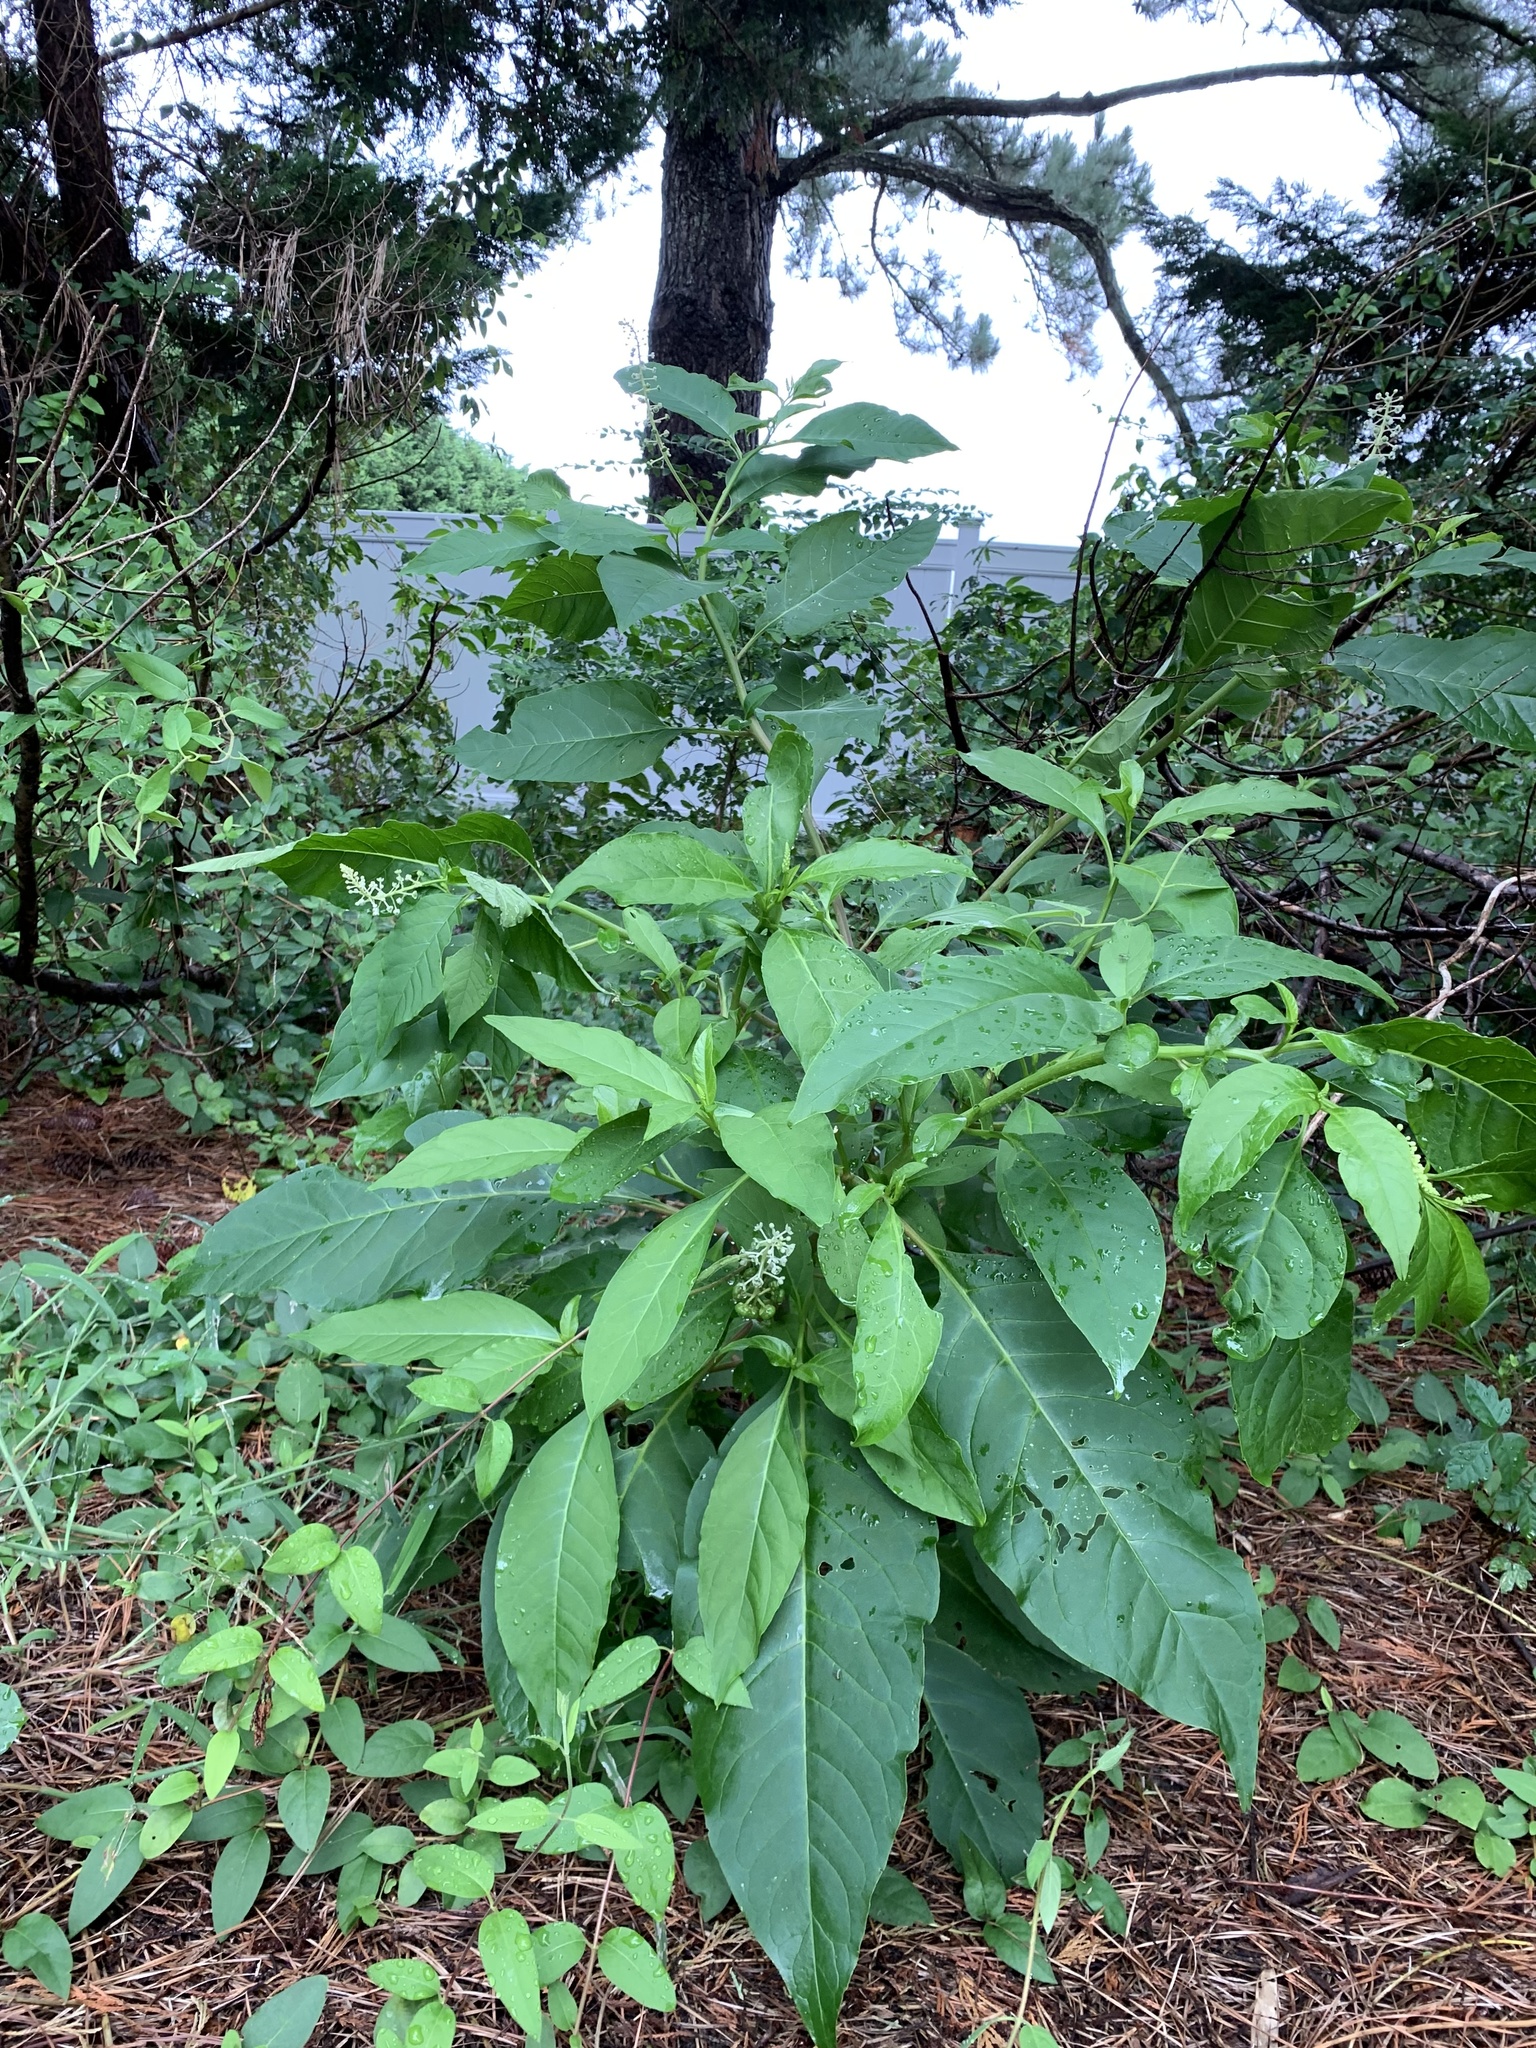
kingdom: Plantae
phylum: Tracheophyta
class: Magnoliopsida
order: Caryophyllales
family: Phytolaccaceae
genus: Phytolacca
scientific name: Phytolacca americana
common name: American pokeweed
